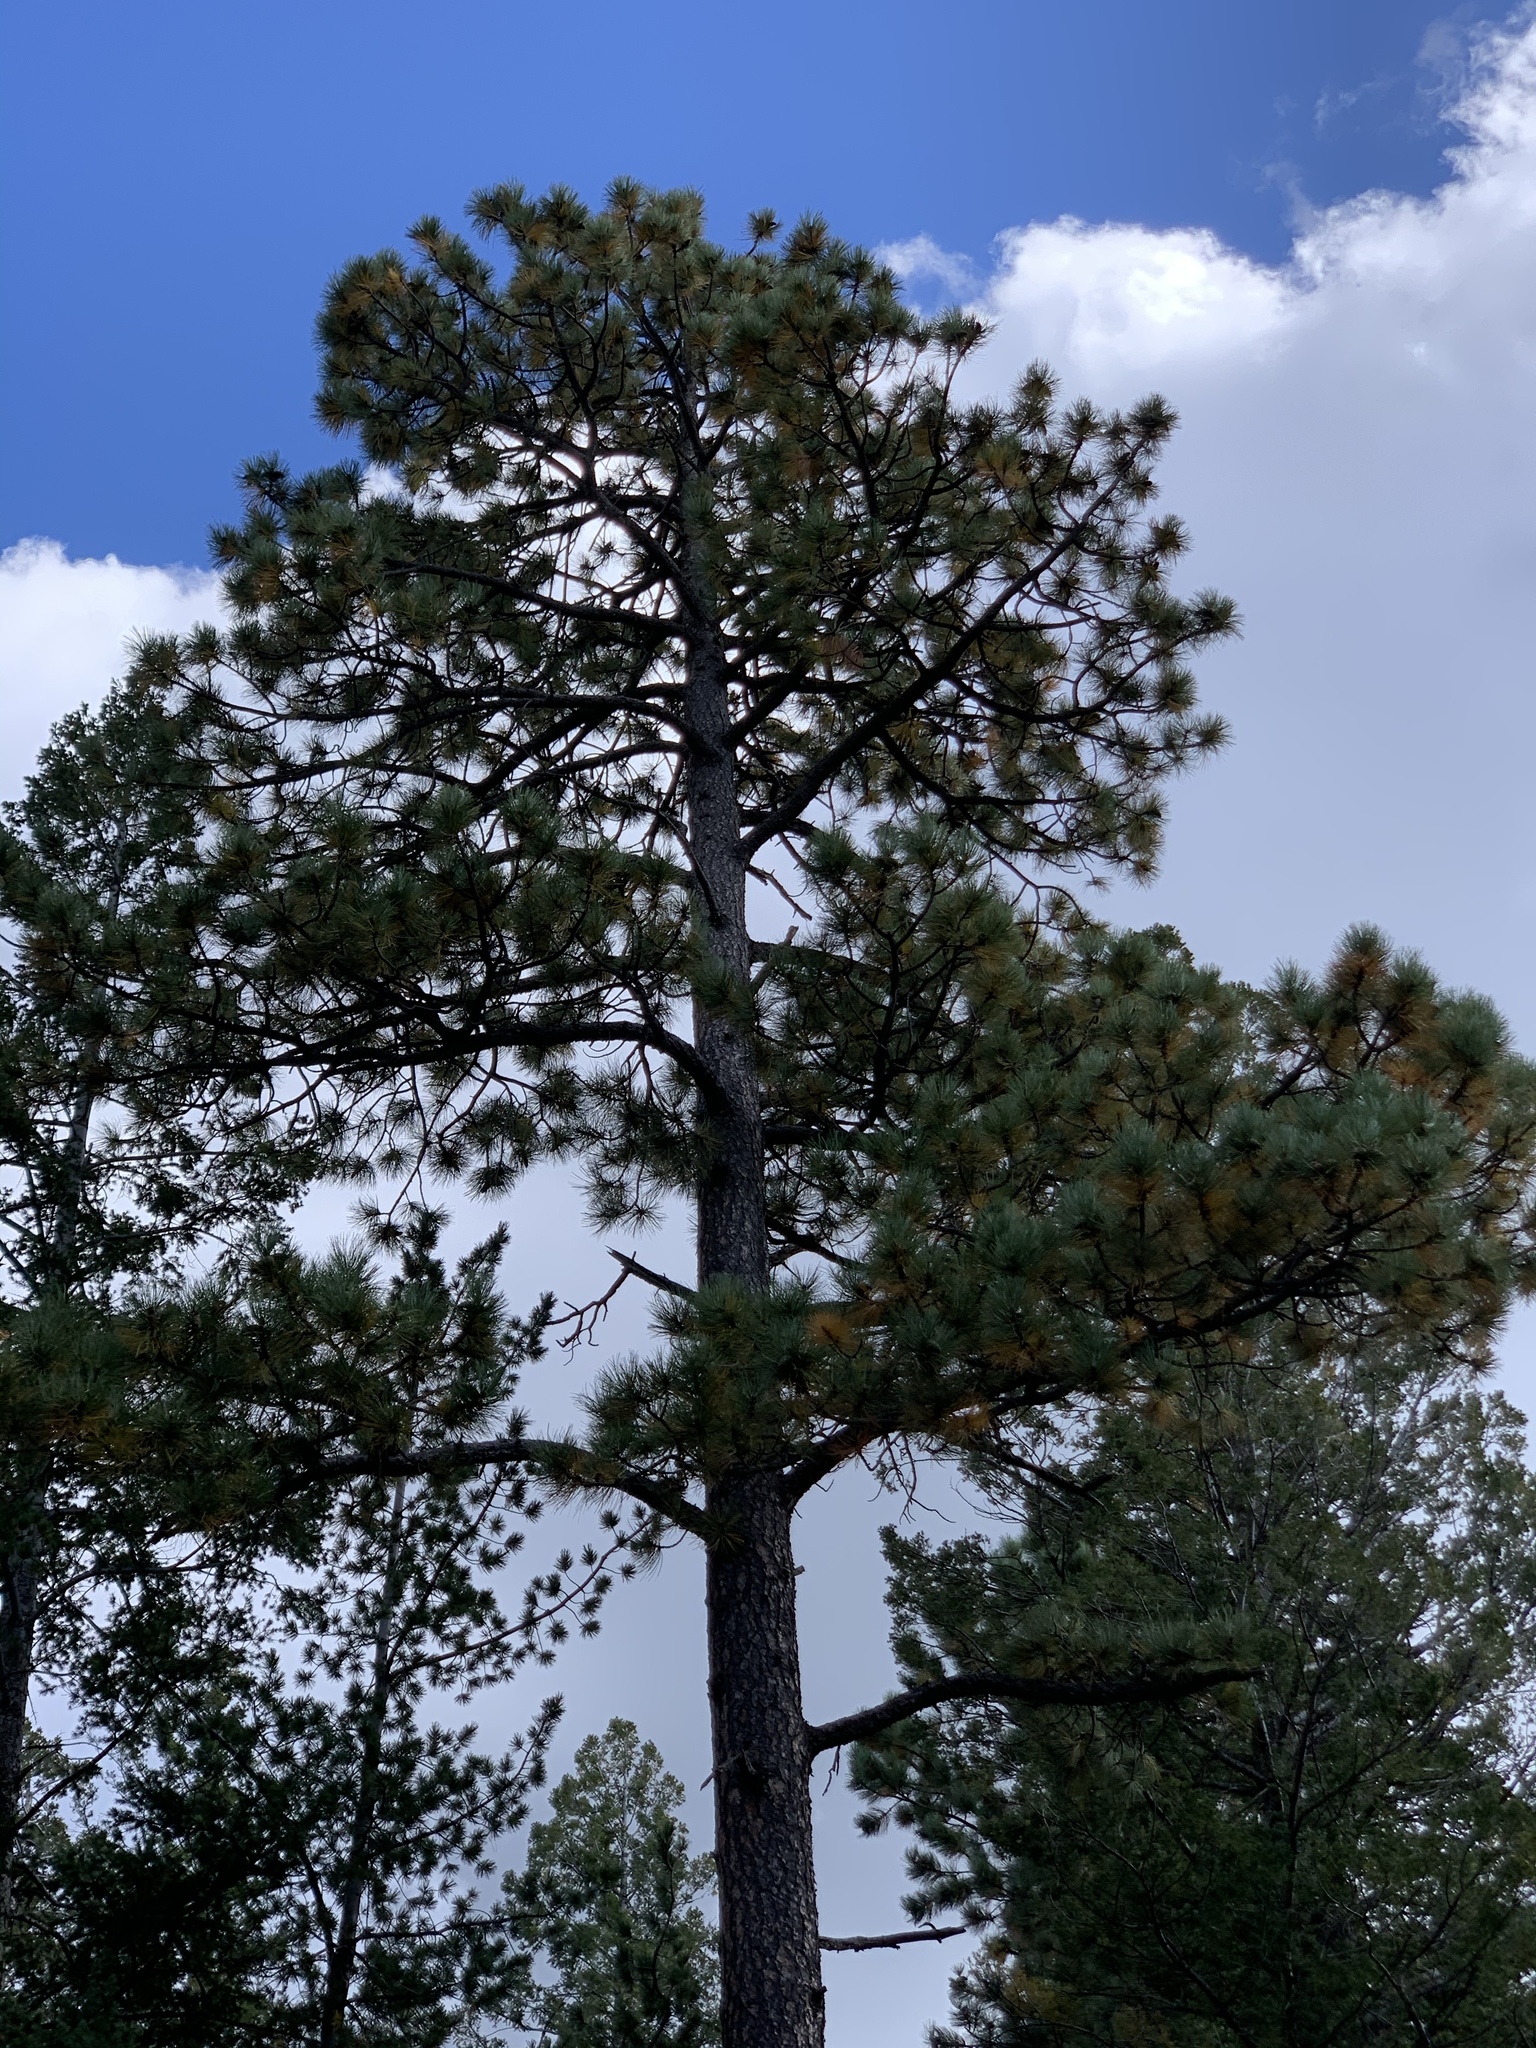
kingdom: Plantae
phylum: Tracheophyta
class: Pinopsida
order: Pinales
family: Pinaceae
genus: Pinus
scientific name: Pinus ponderosa
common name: Western yellow-pine
